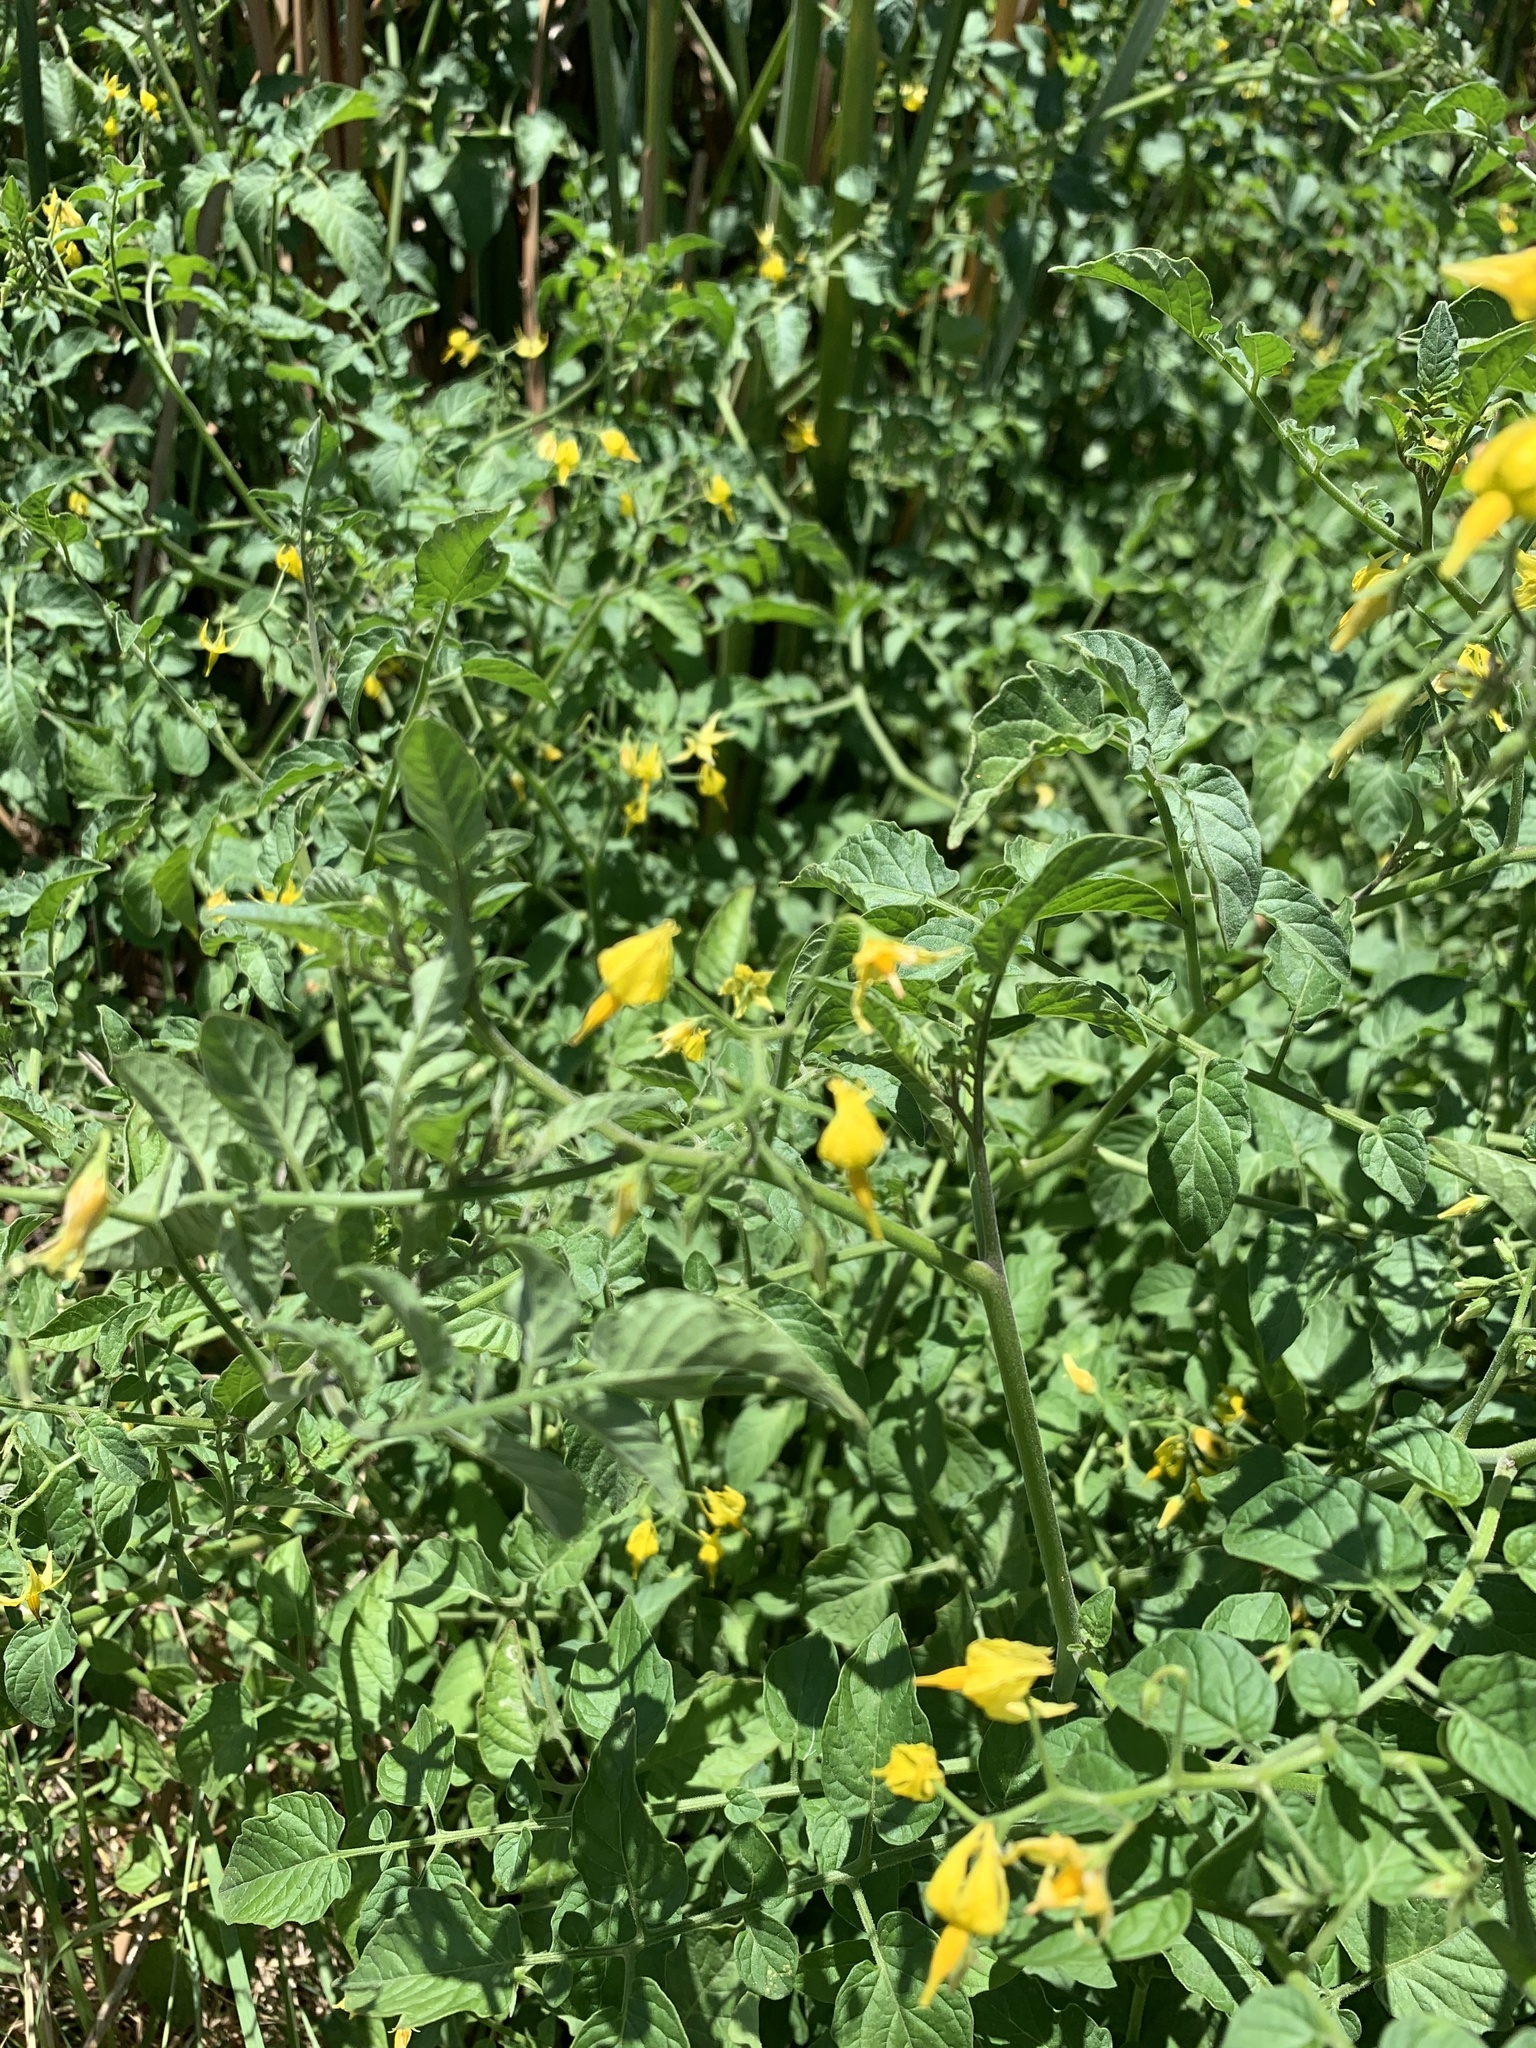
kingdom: Plantae
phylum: Tracheophyta
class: Magnoliopsida
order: Solanales
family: Solanaceae
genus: Solanum
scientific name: Solanum lycopersicum
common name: Garden tomato
